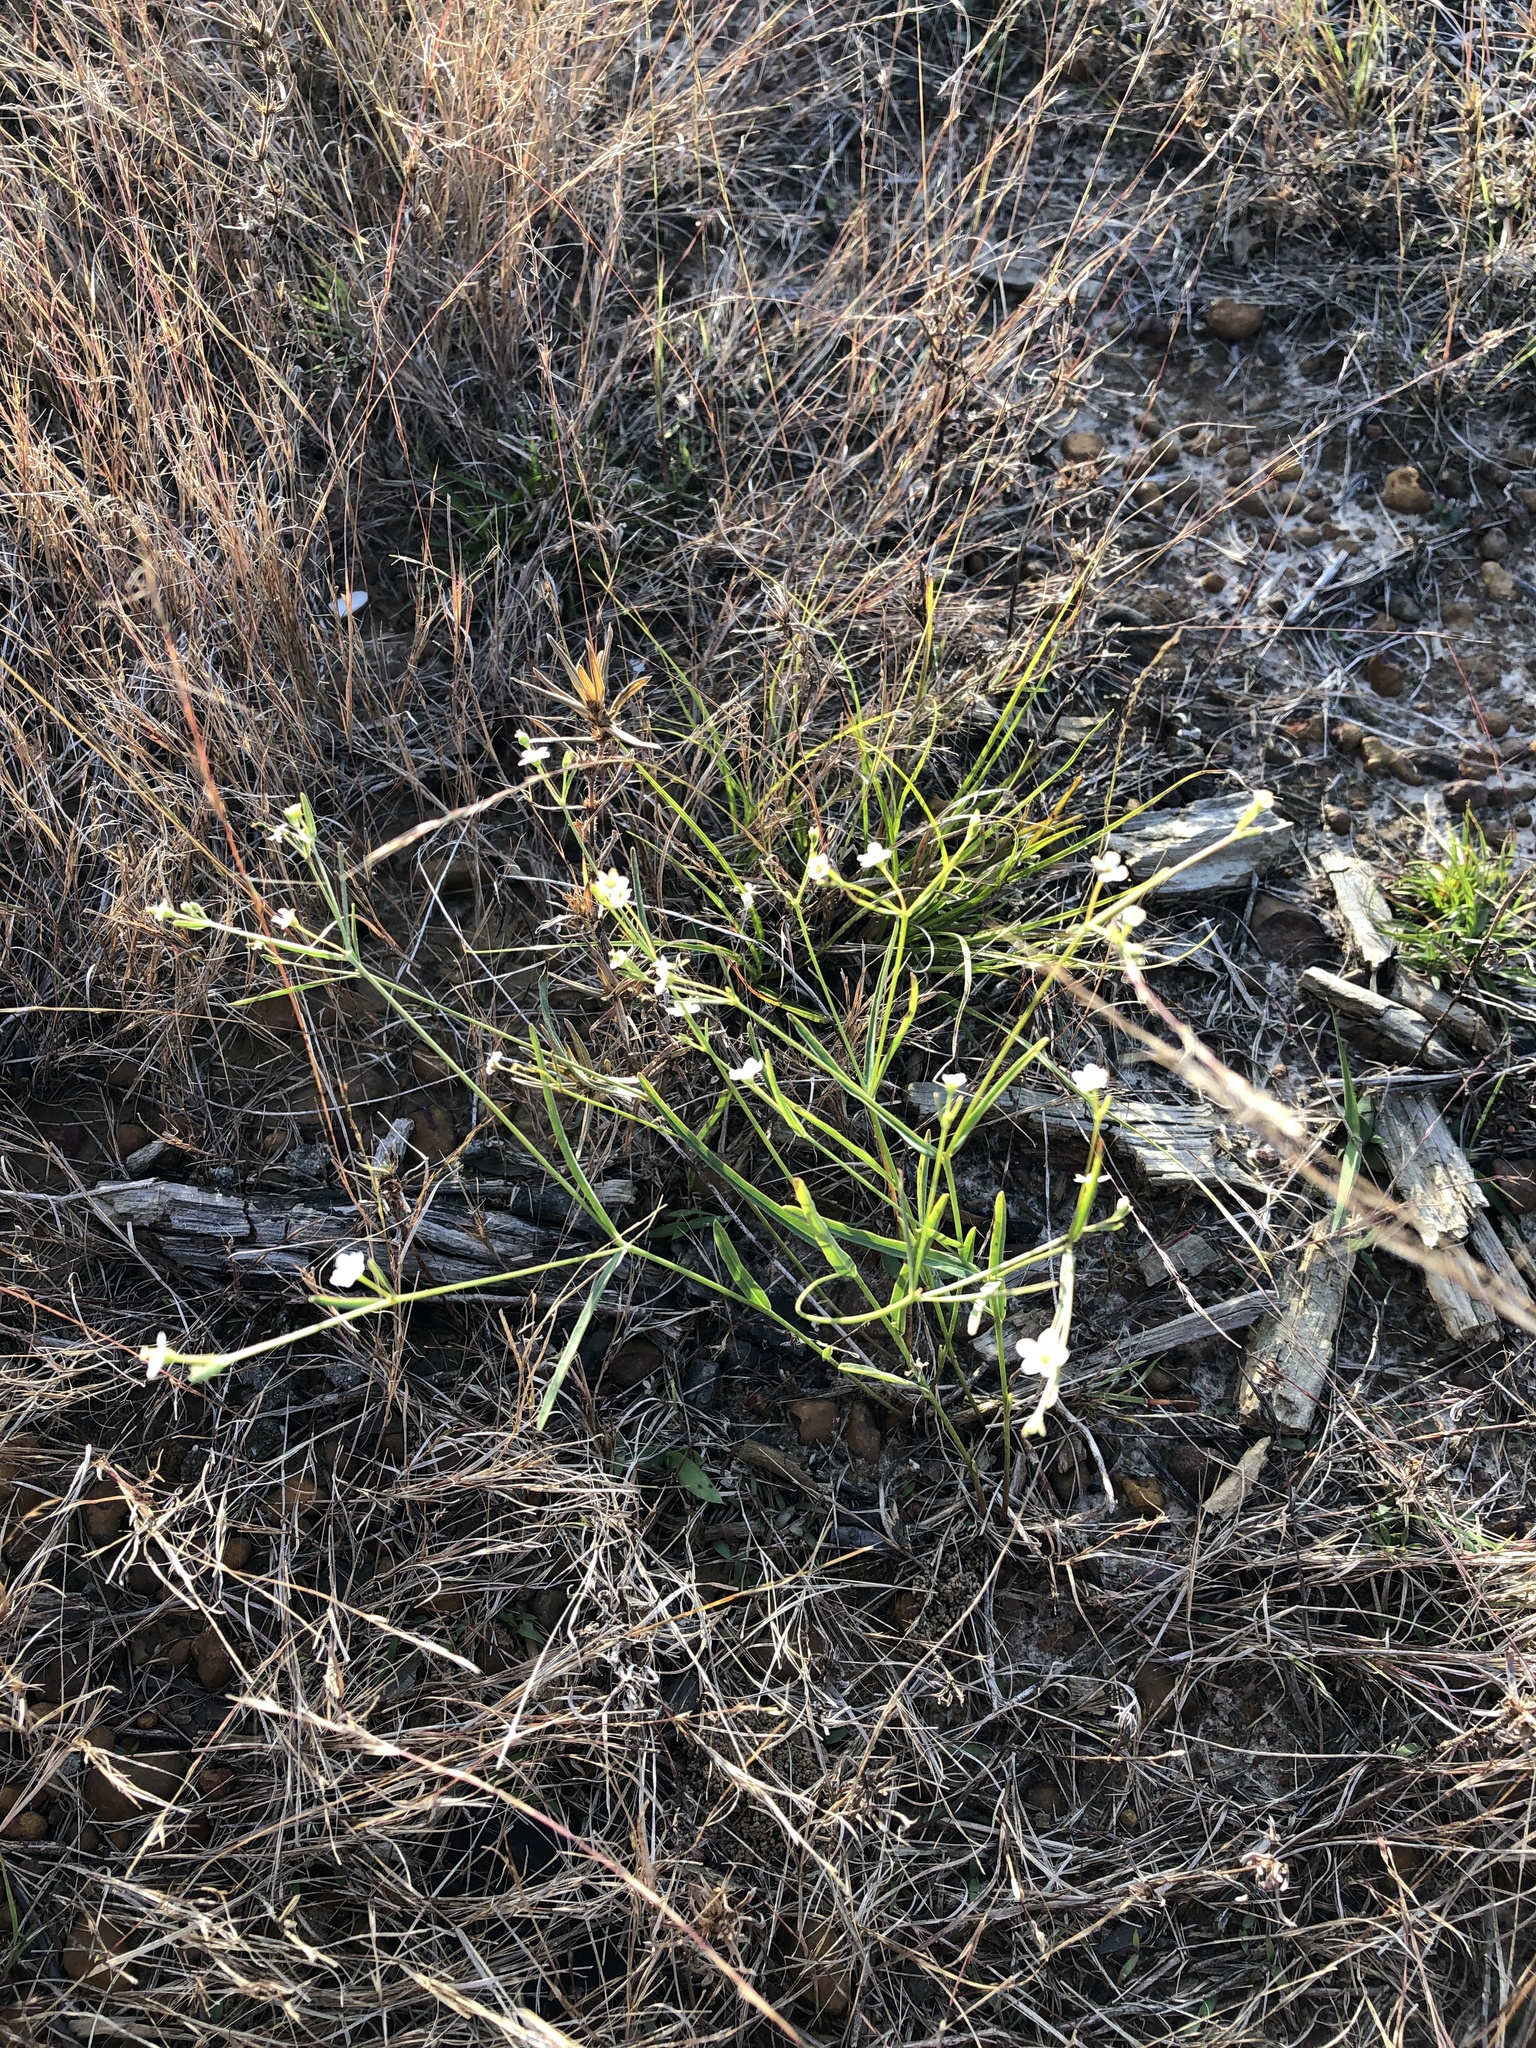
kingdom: Plantae
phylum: Tracheophyta
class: Magnoliopsida
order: Malpighiales
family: Euphorbiaceae
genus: Euphorbia
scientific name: Euphorbia corollata
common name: Flowering spurge
